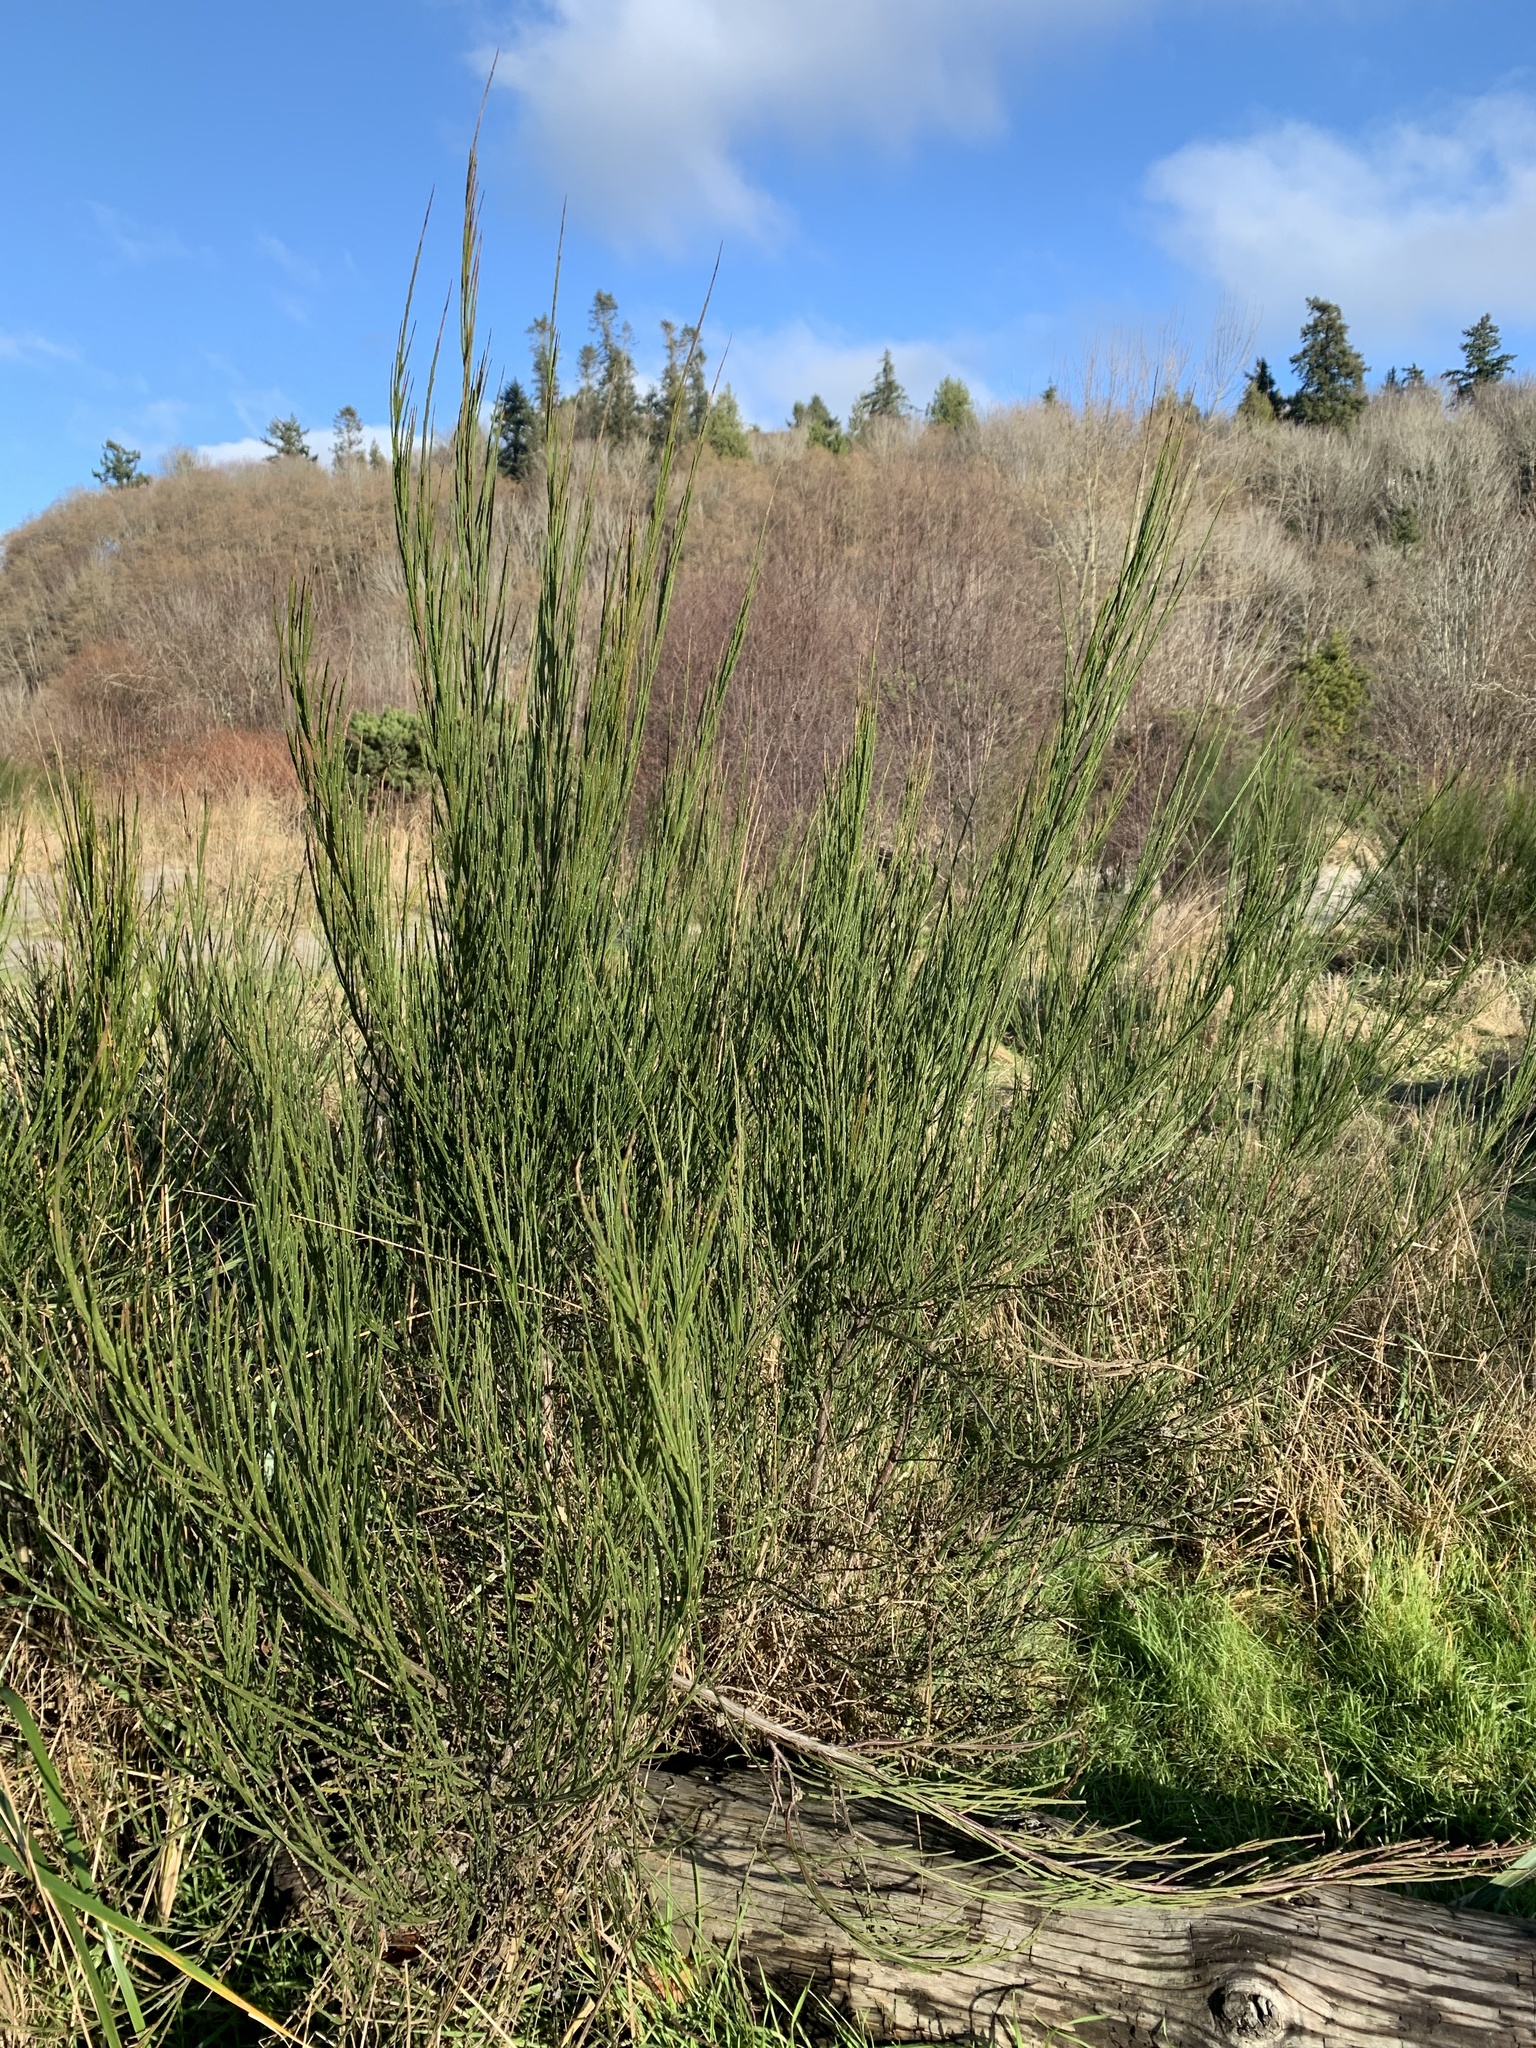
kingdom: Plantae
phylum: Tracheophyta
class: Magnoliopsida
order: Fabales
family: Fabaceae
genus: Cytisus
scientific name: Cytisus scoparius
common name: Scotch broom
